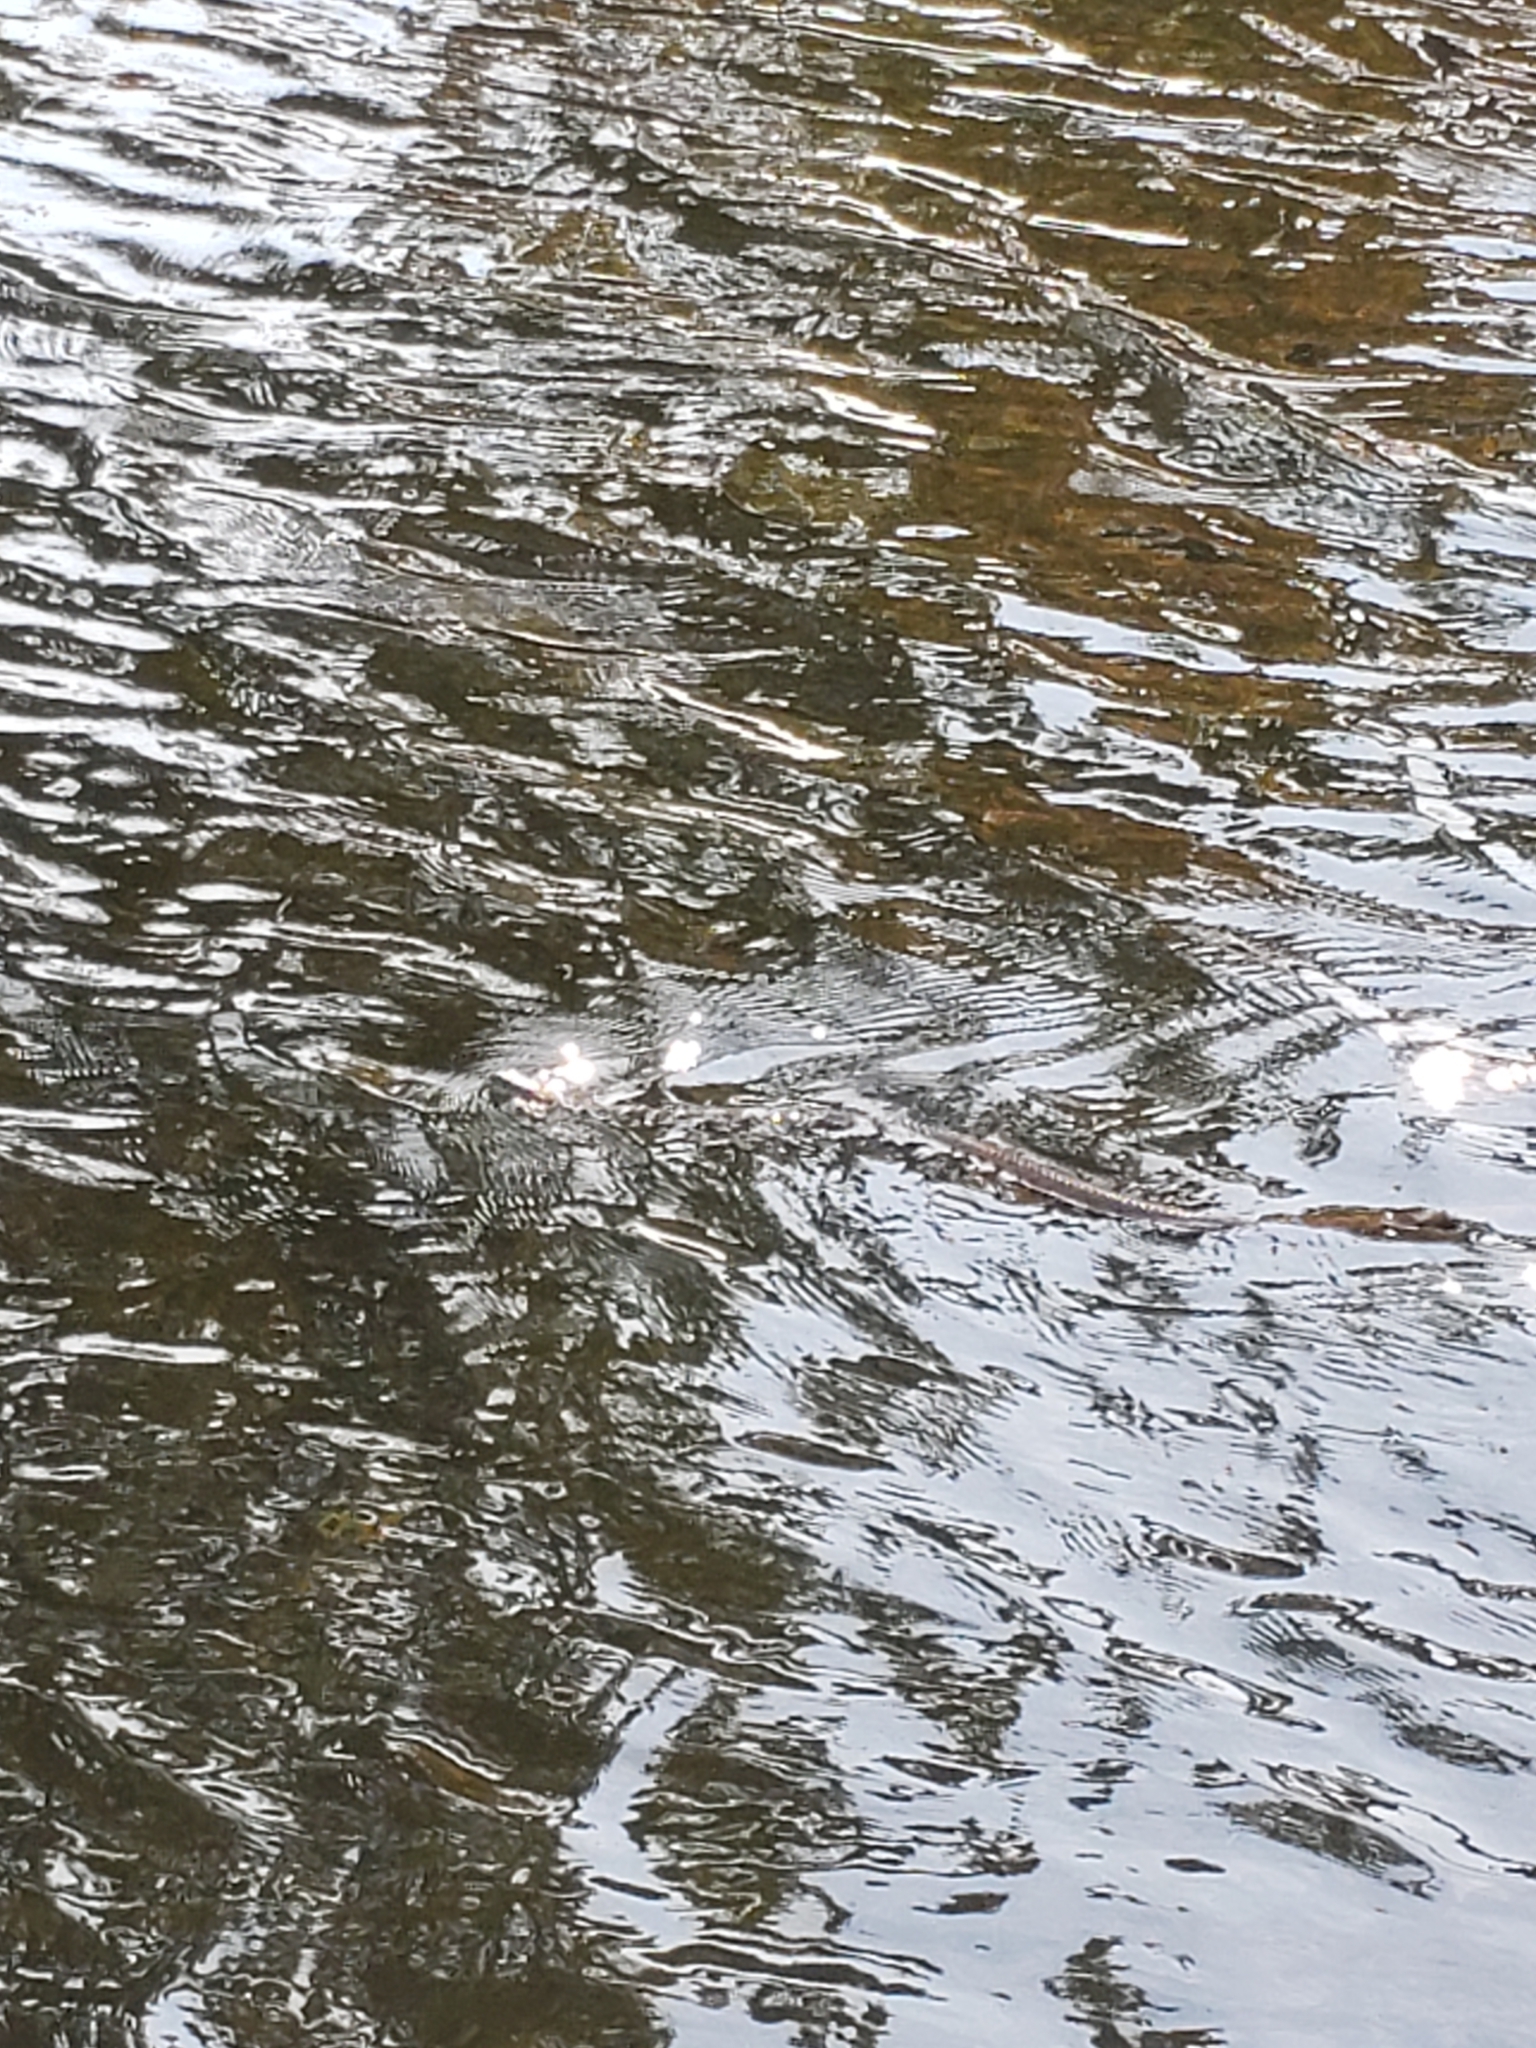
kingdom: Animalia
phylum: Chordata
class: Squamata
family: Colubridae
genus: Nerodia
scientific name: Nerodia sipedon
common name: Northern water snake
